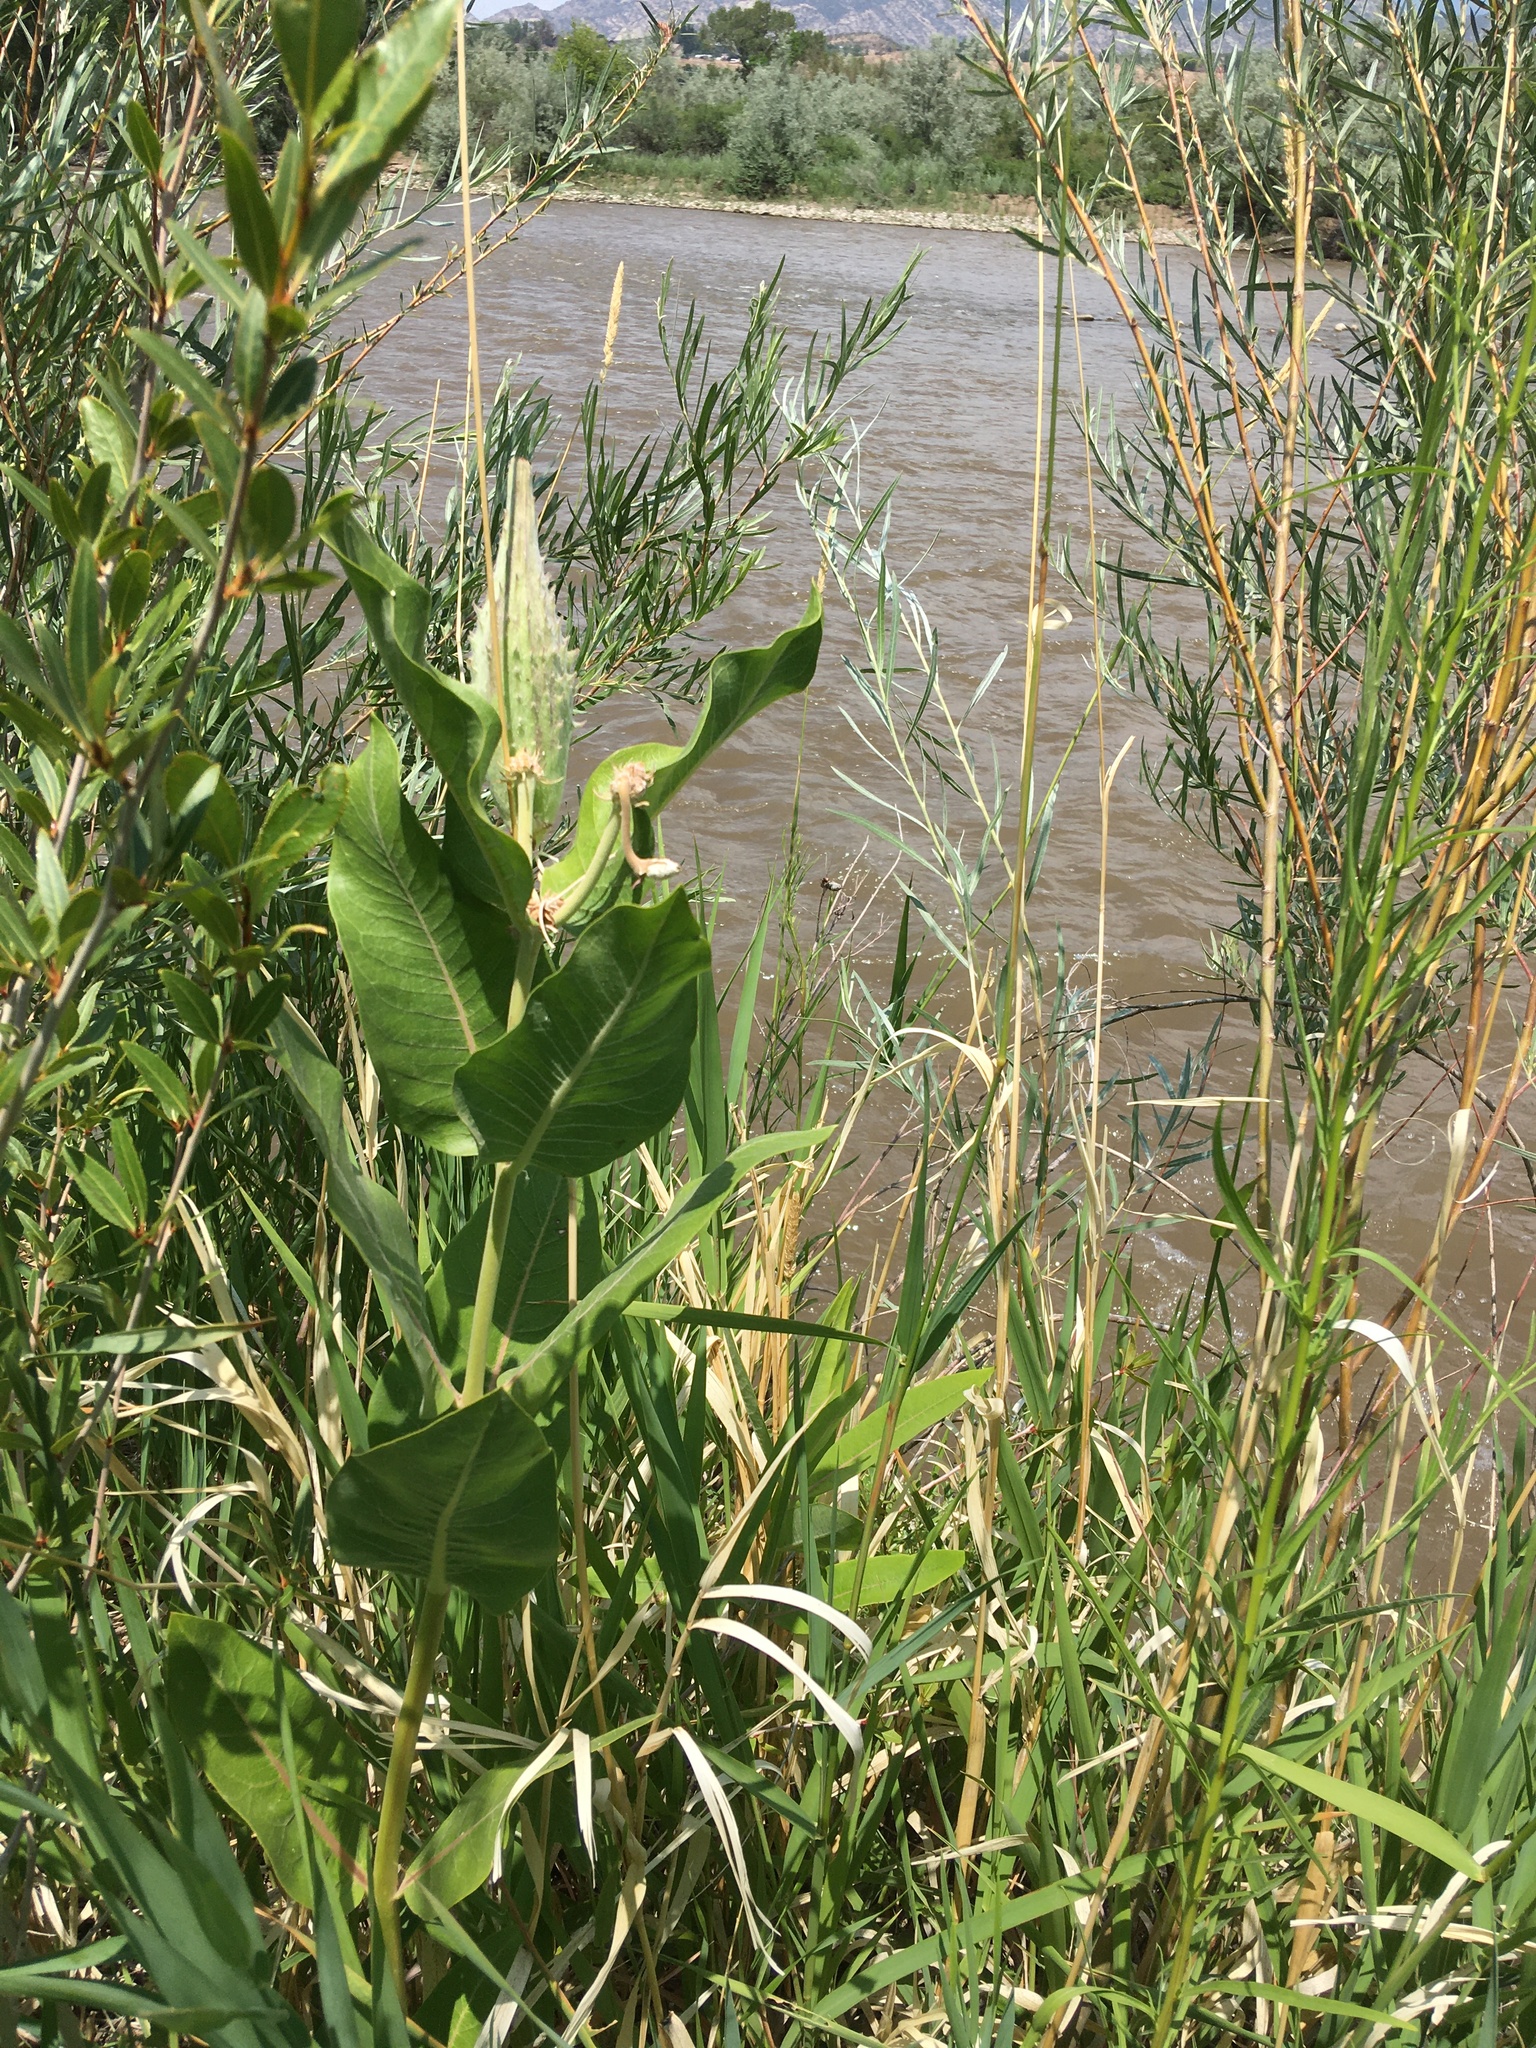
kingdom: Plantae
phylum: Tracheophyta
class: Magnoliopsida
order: Gentianales
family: Apocynaceae
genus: Asclepias
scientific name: Asclepias speciosa
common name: Showy milkweed
